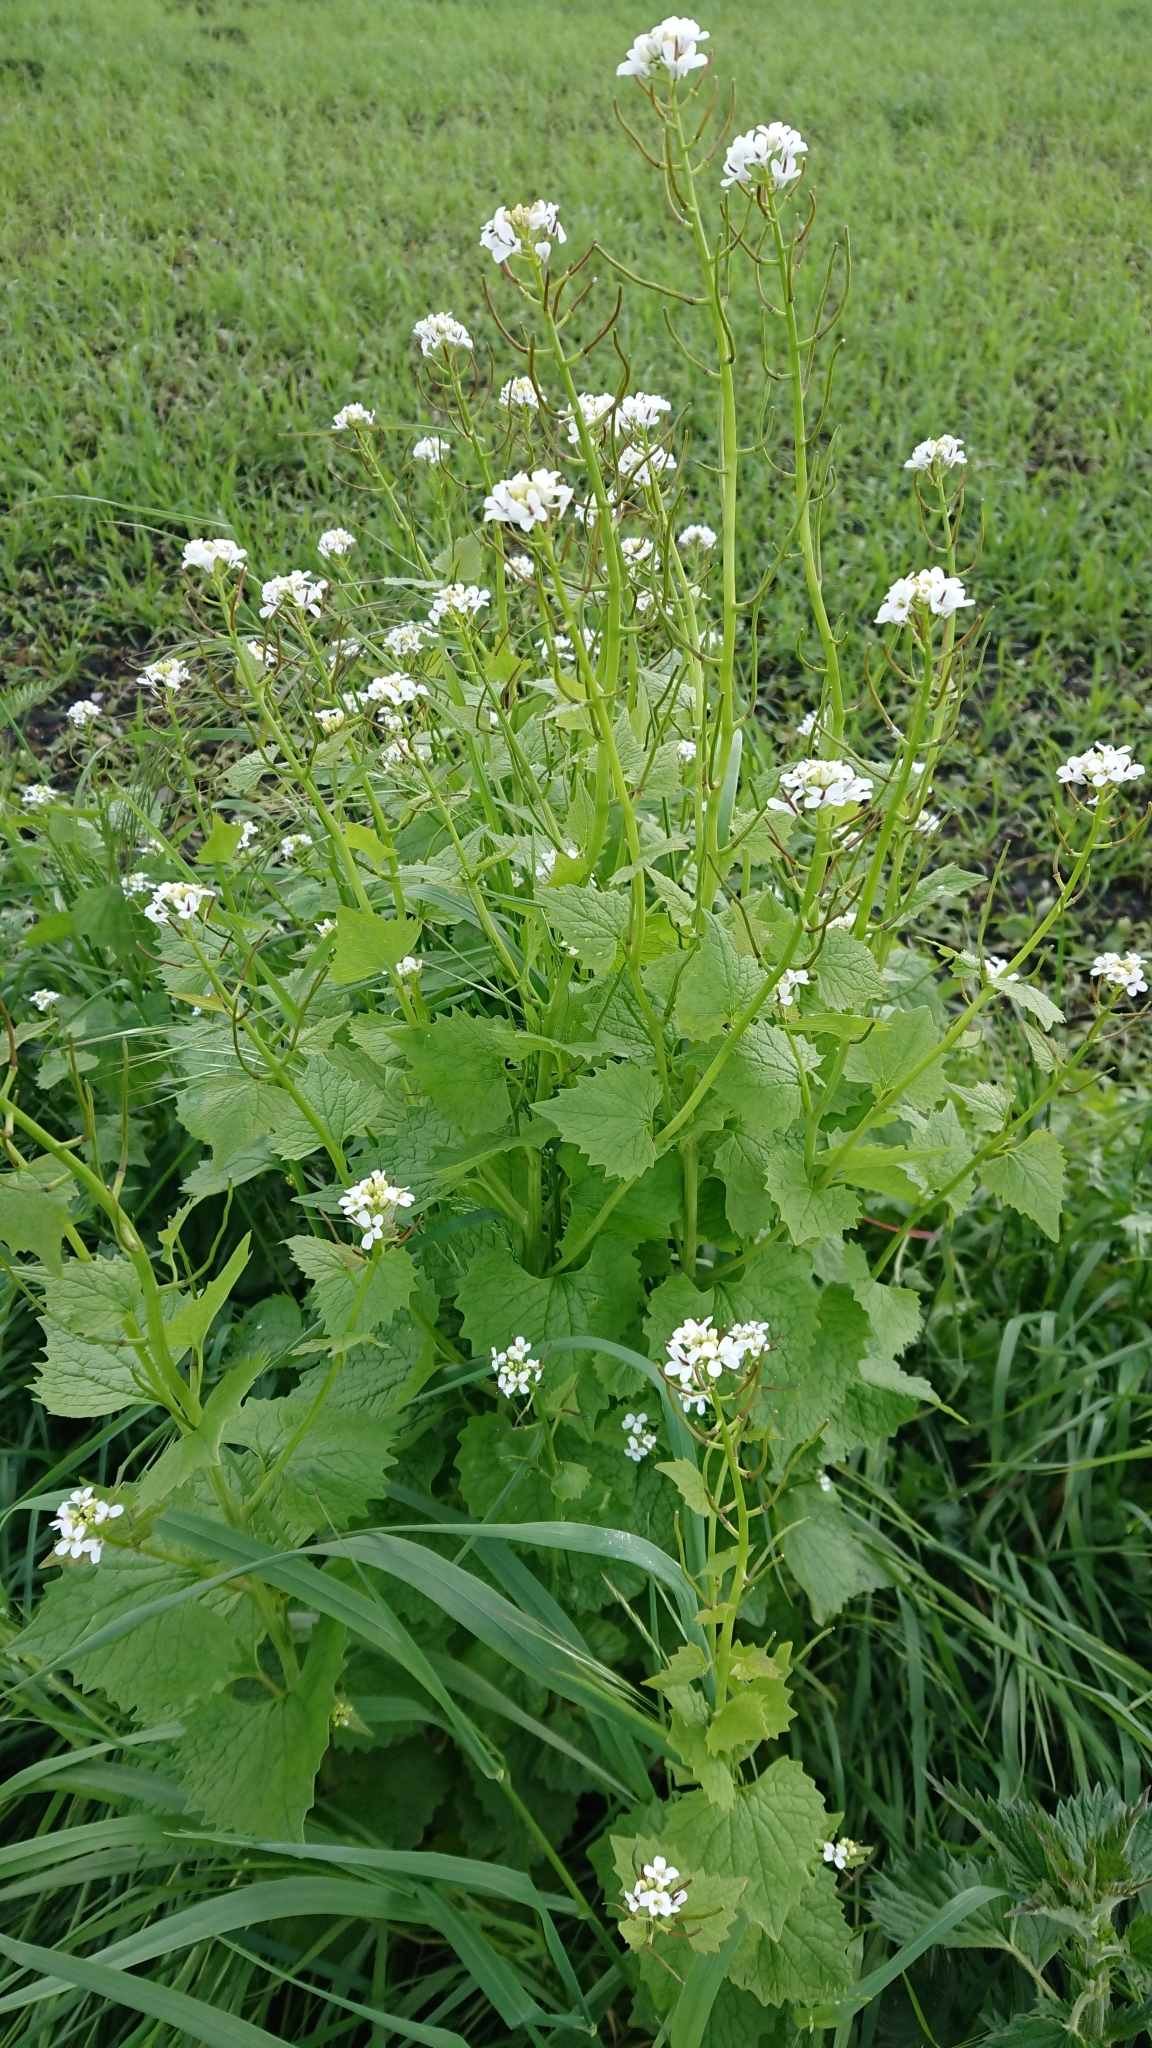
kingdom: Plantae
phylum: Tracheophyta
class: Magnoliopsida
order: Brassicales
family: Brassicaceae
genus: Alliaria
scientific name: Alliaria petiolata
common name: Garlic mustard
